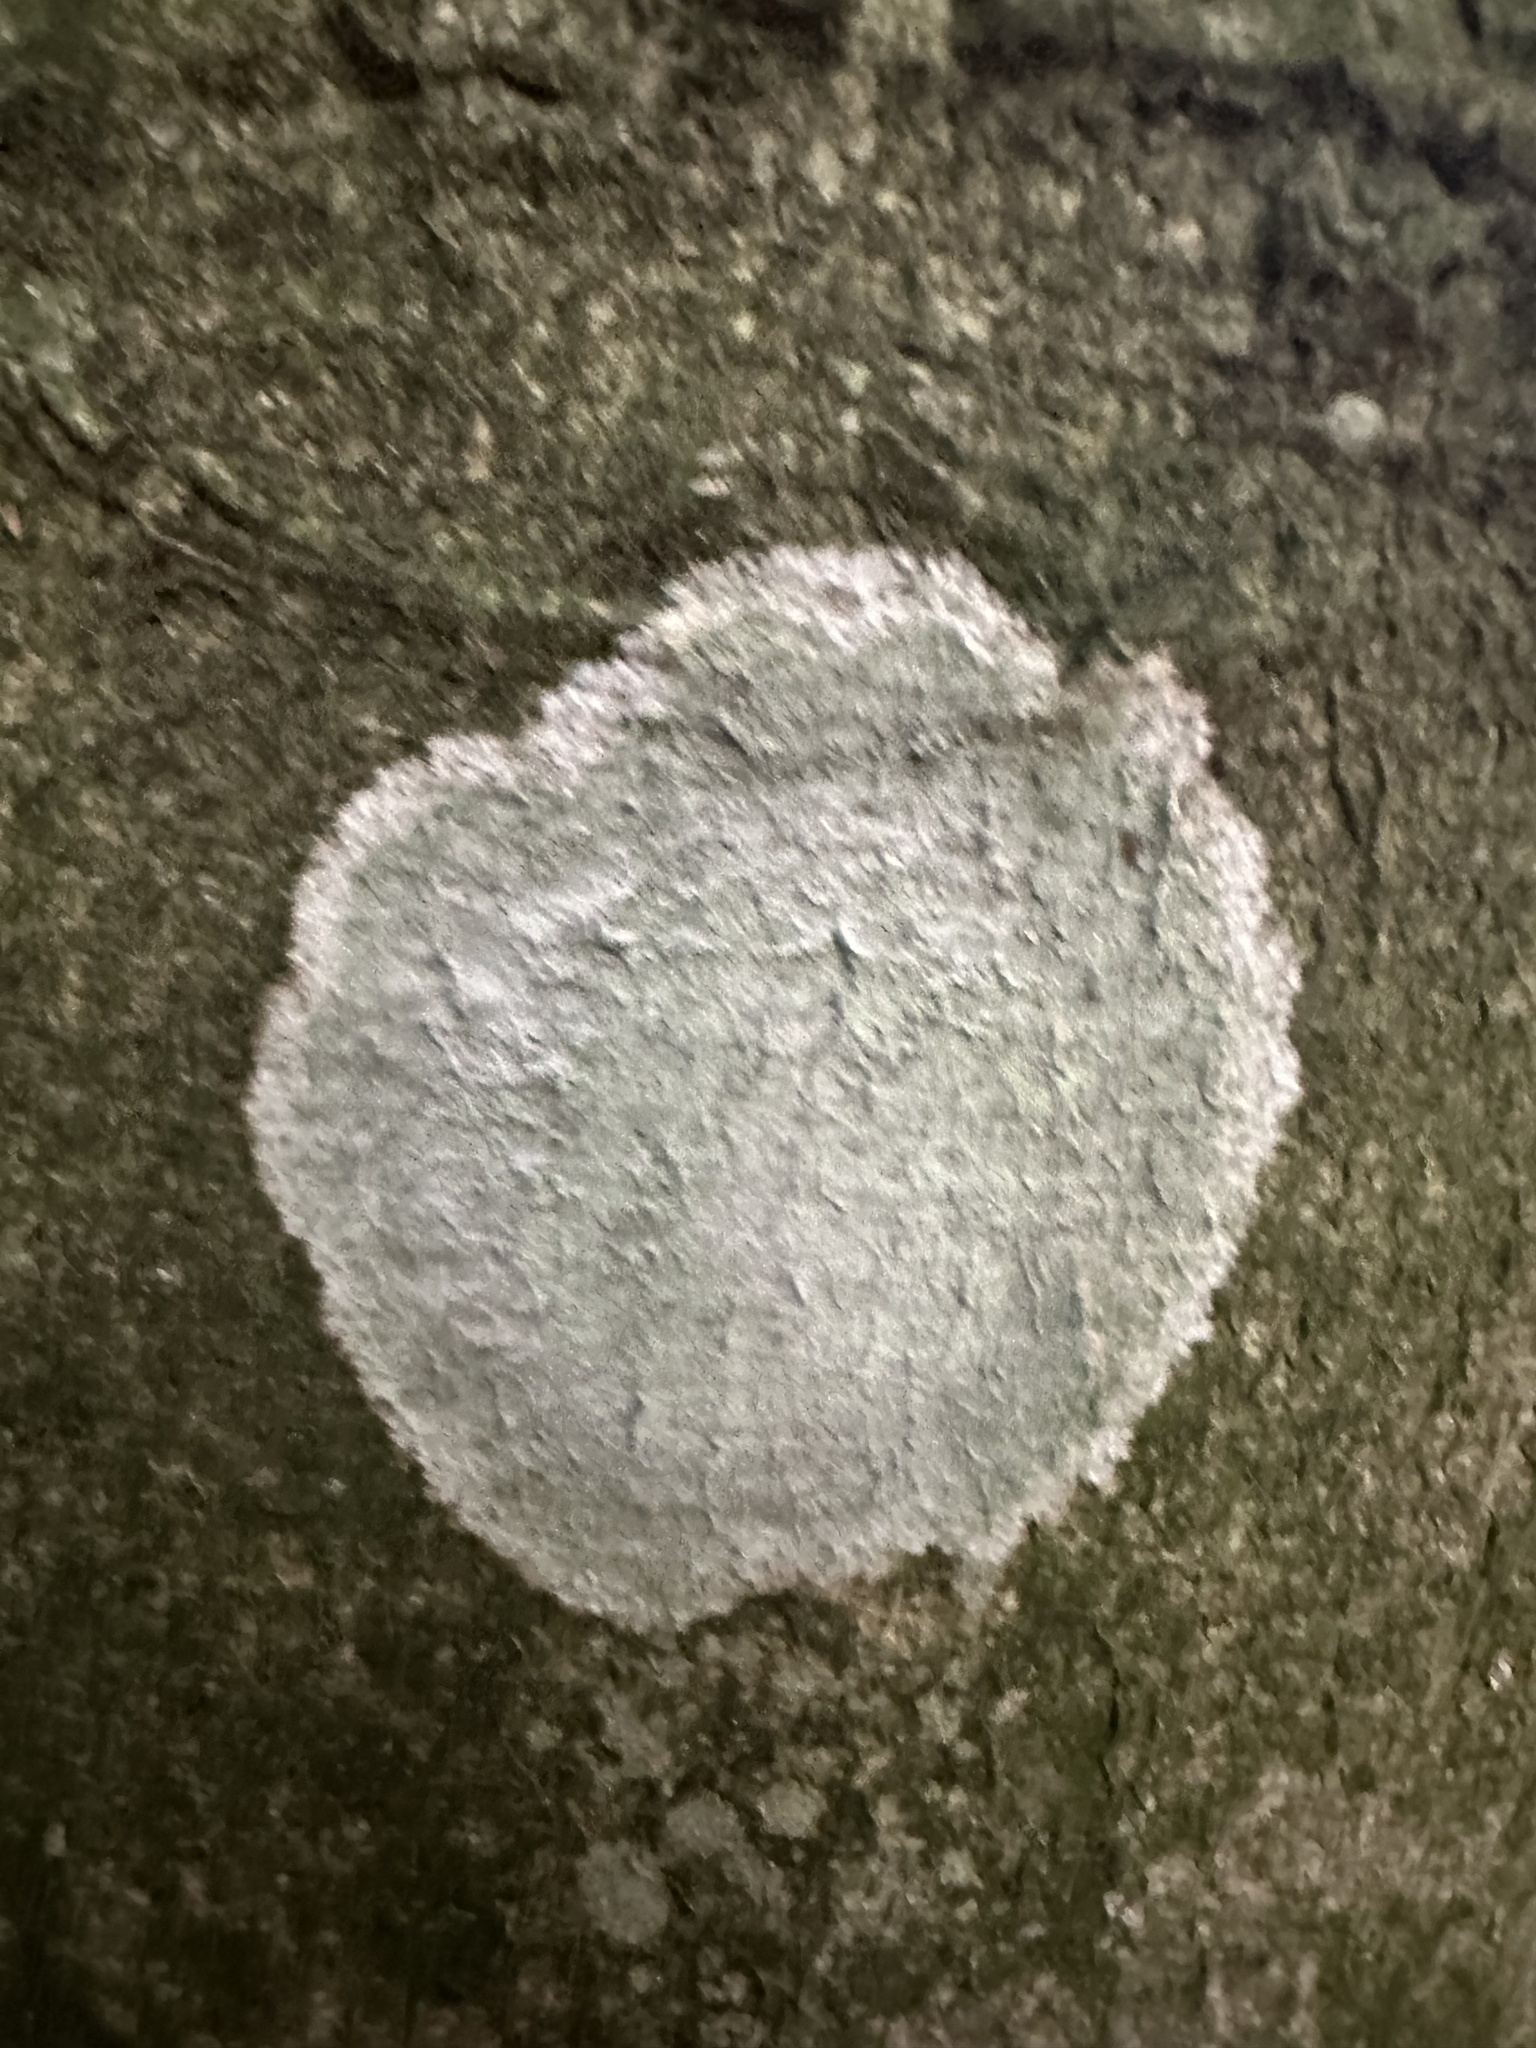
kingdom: Fungi
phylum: Ascomycota
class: Lecanoromycetes
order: Ostropales
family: Phlyctidaceae
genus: Phlyctis
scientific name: Phlyctis argena
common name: Whitewash lichen
